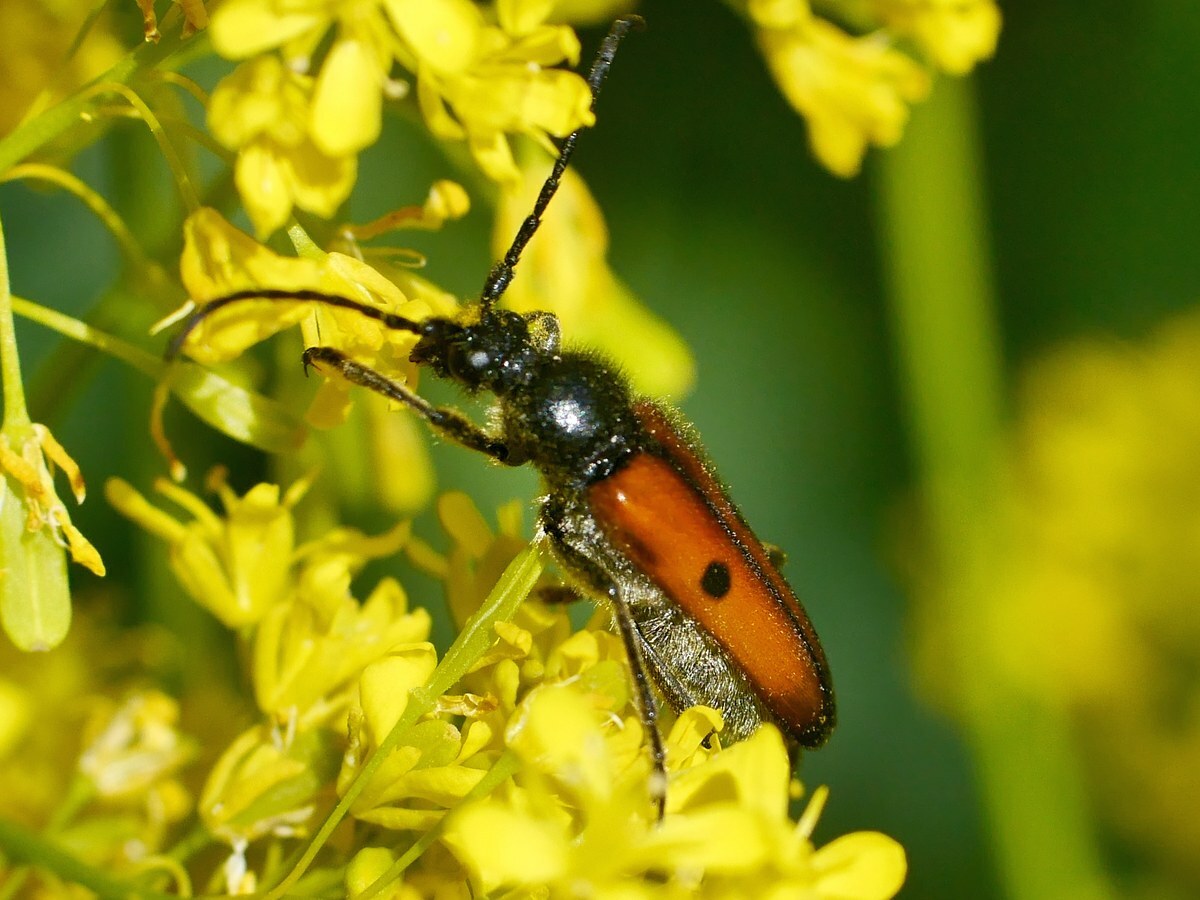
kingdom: Animalia
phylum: Arthropoda
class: Insecta
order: Coleoptera
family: Cerambycidae
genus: Vadonia
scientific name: Vadonia unipunctata
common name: Long-horned beetle
